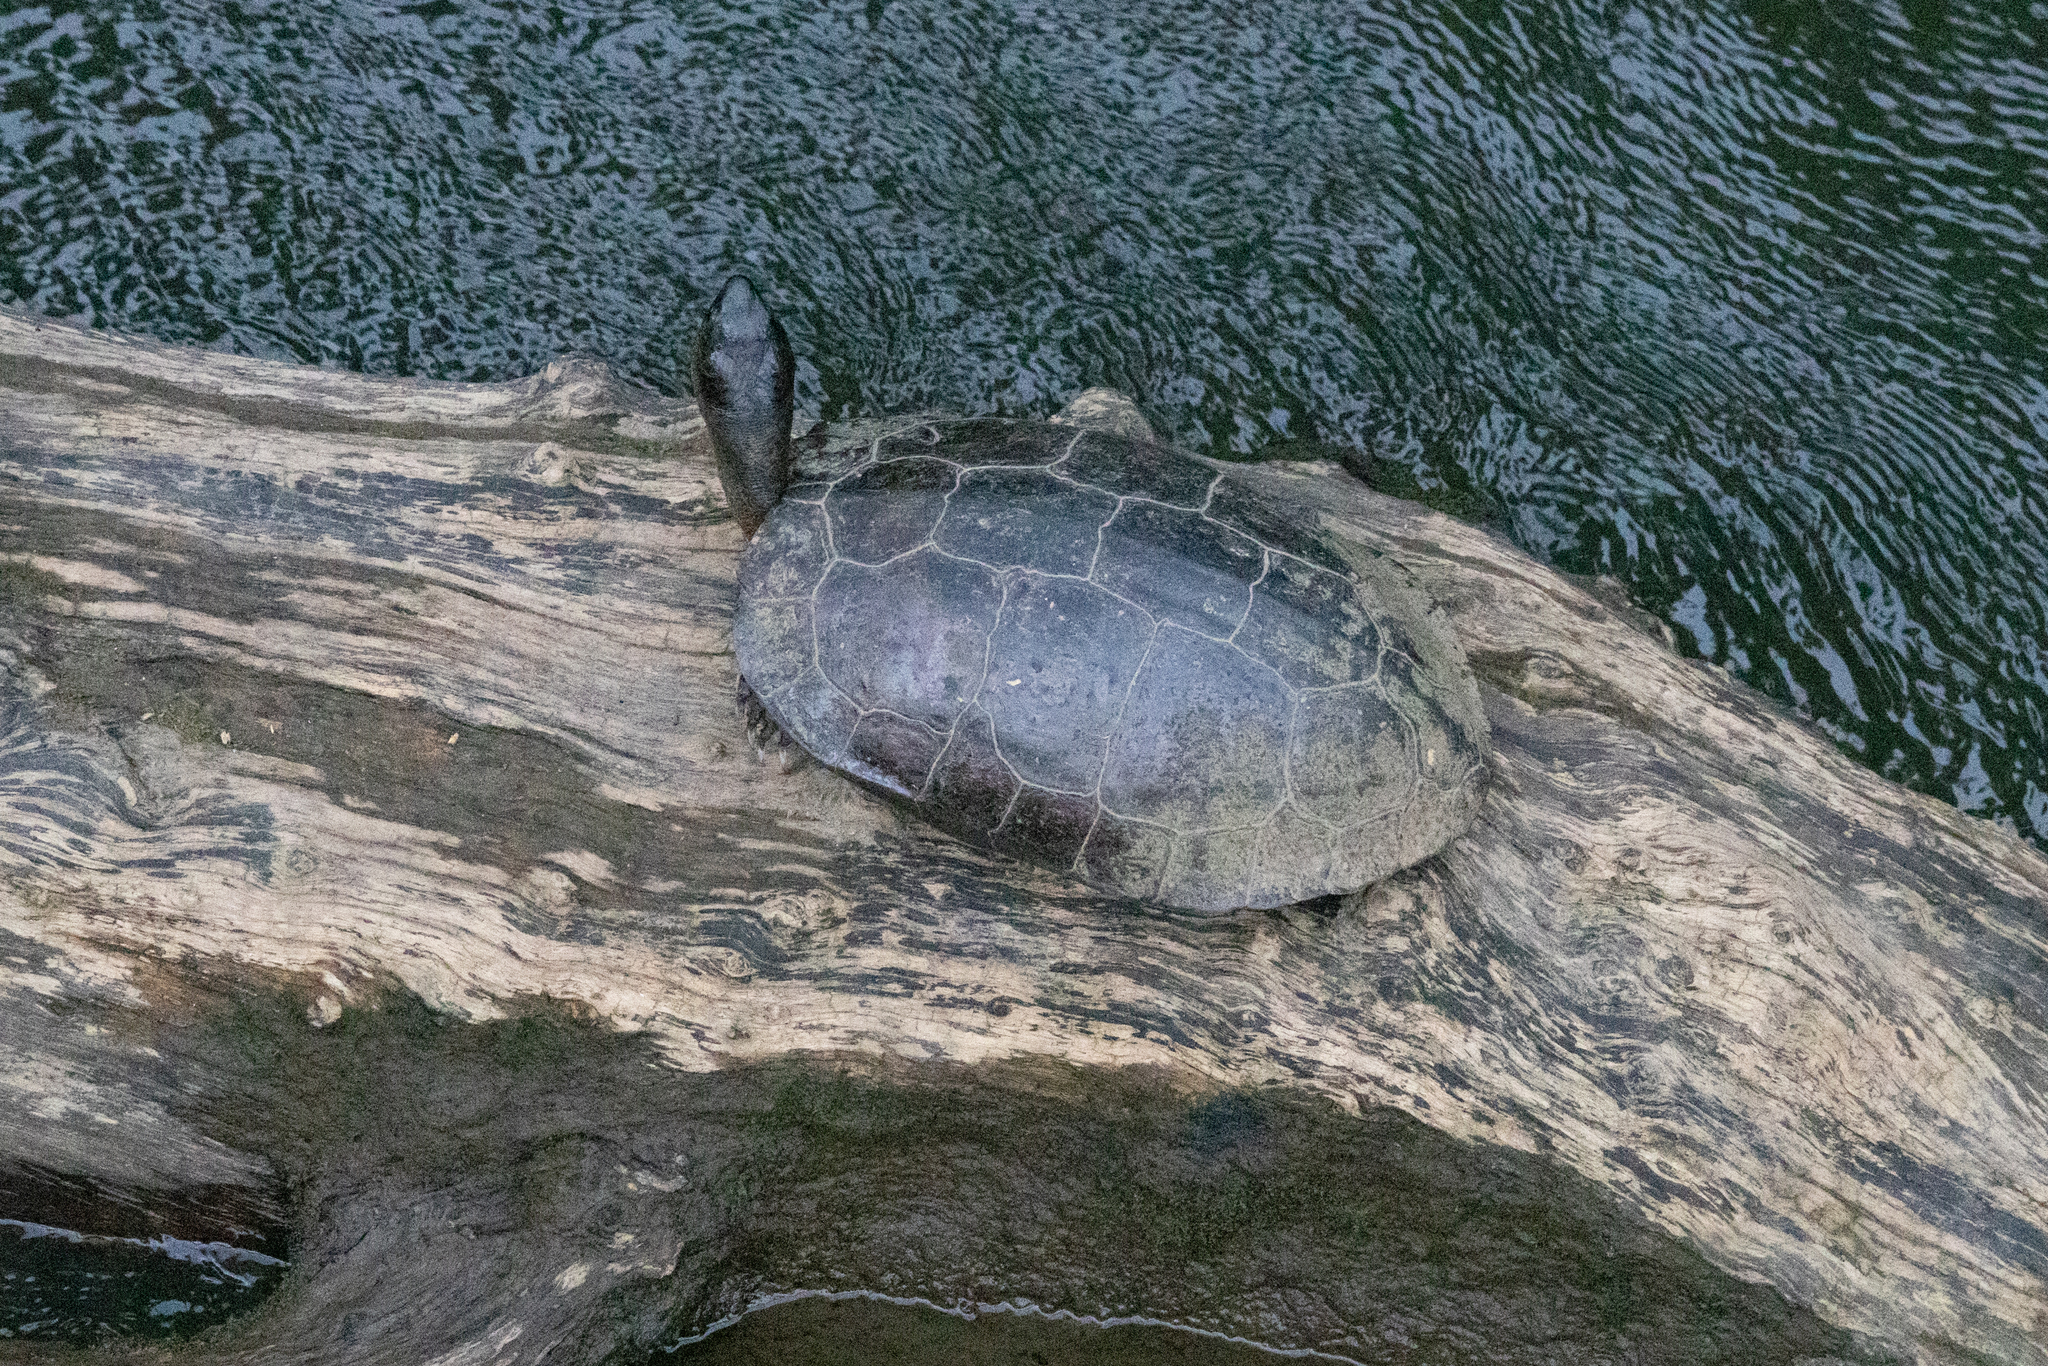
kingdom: Animalia
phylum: Chordata
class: Testudines
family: Geoemydidae
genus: Rhinoclemmys
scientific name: Rhinoclemmys funerea
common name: Black wood turtle
